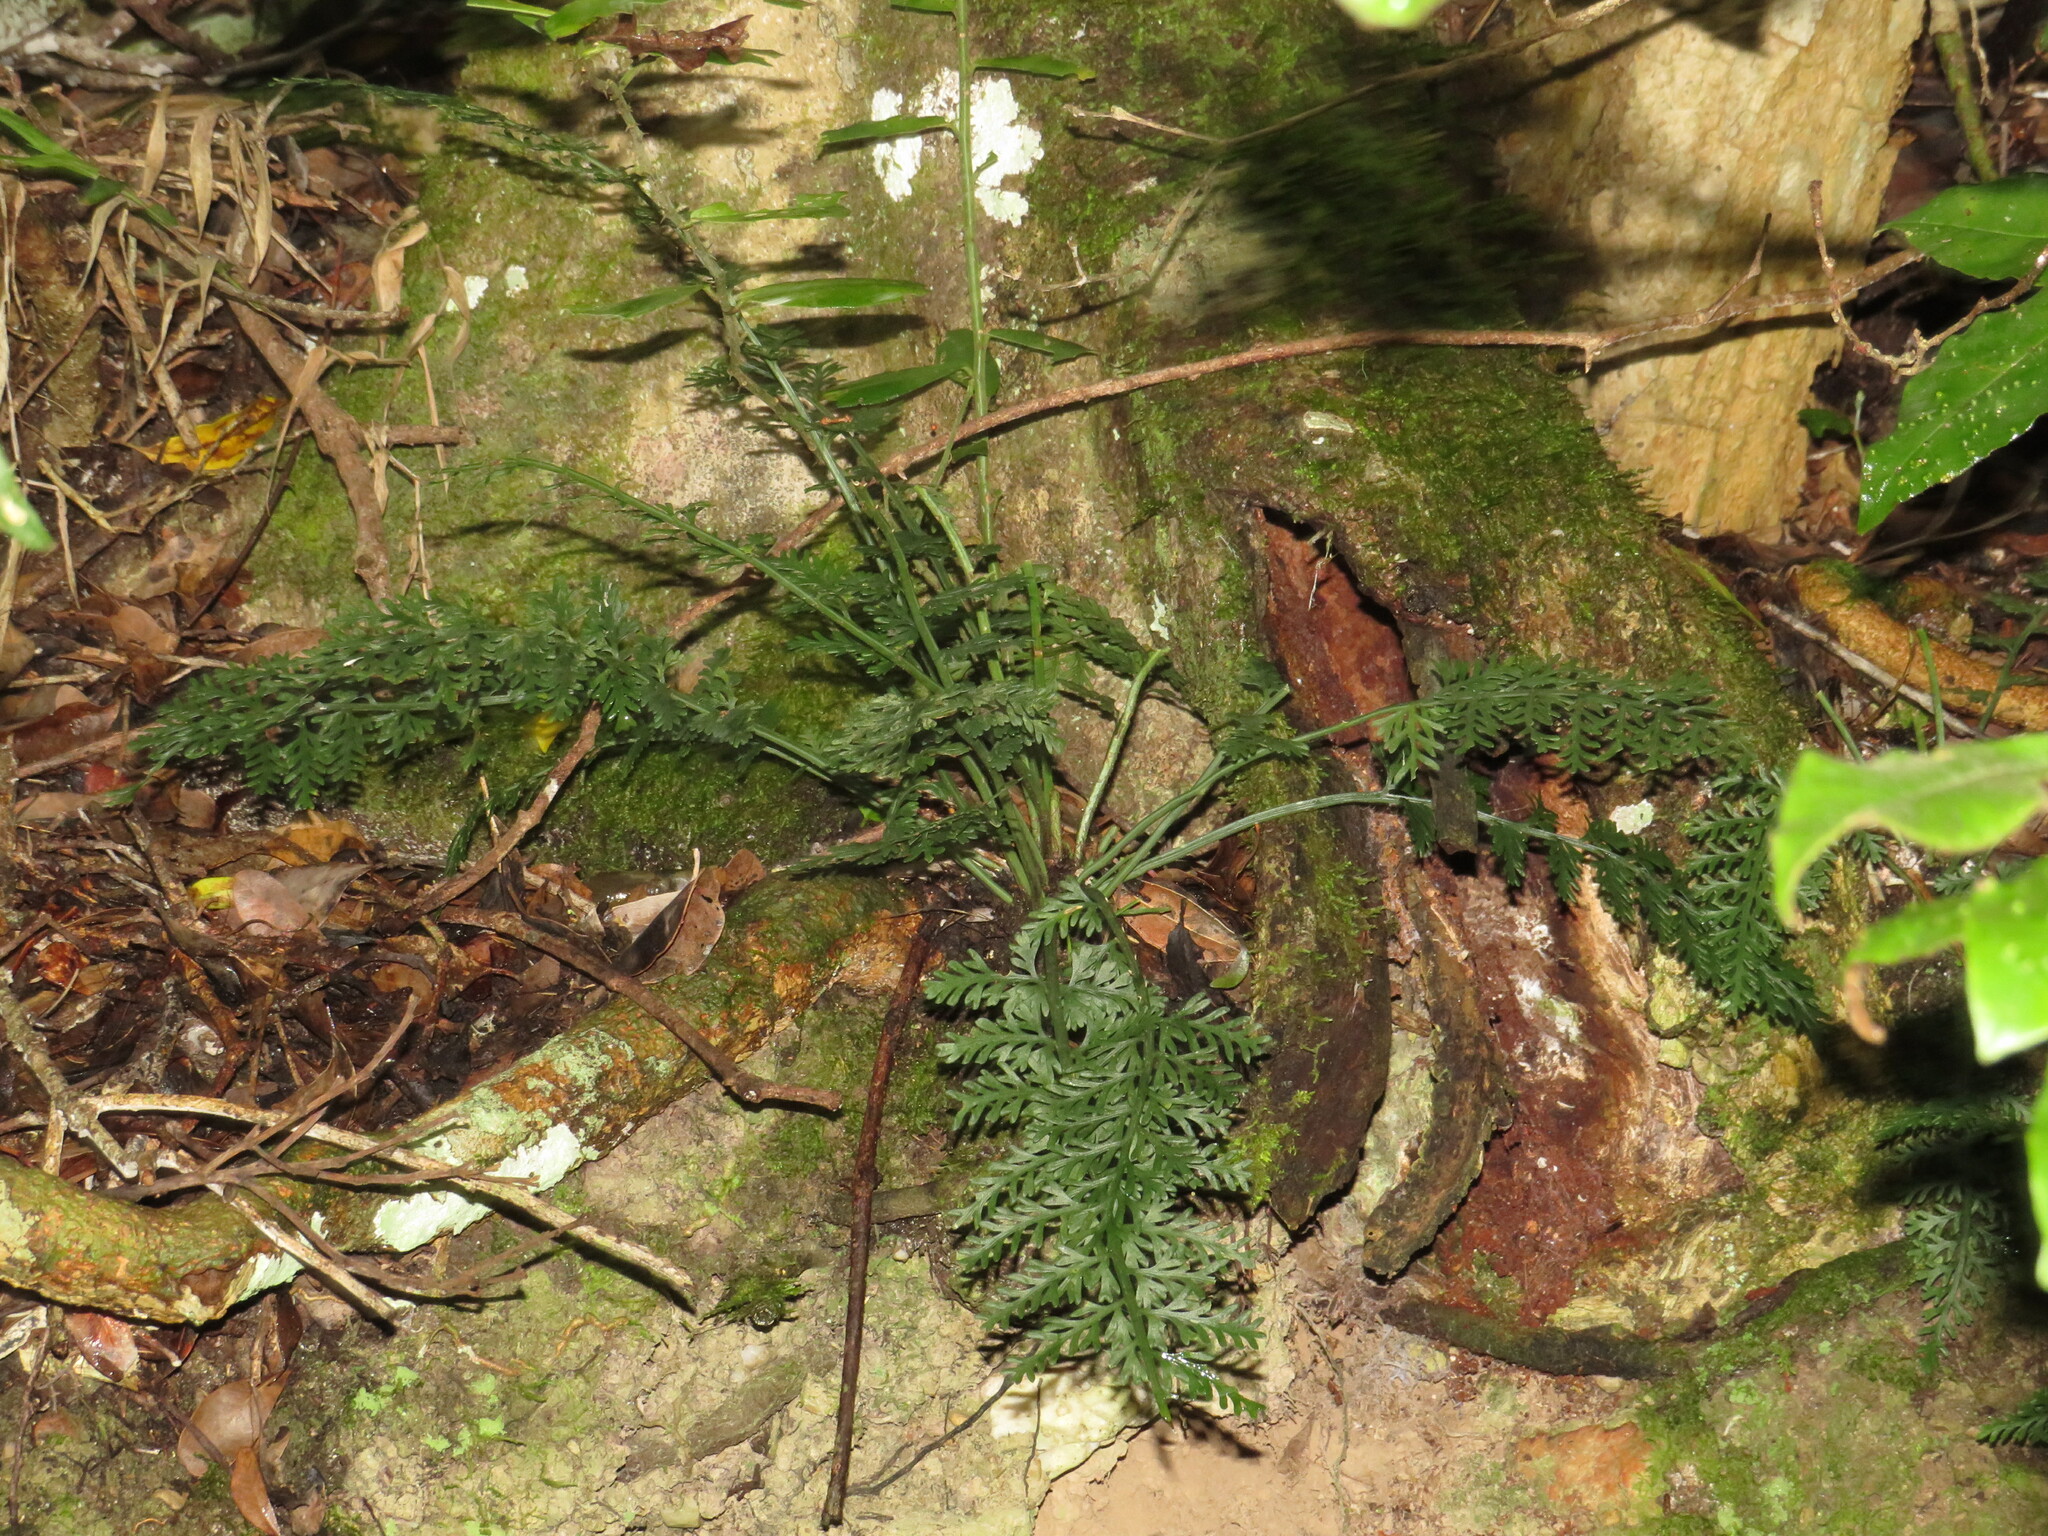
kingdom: Plantae
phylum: Tracheophyta
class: Polypodiopsida
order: Polypodiales
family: Aspleniaceae
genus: Asplenium
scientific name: Asplenium rutifolium
